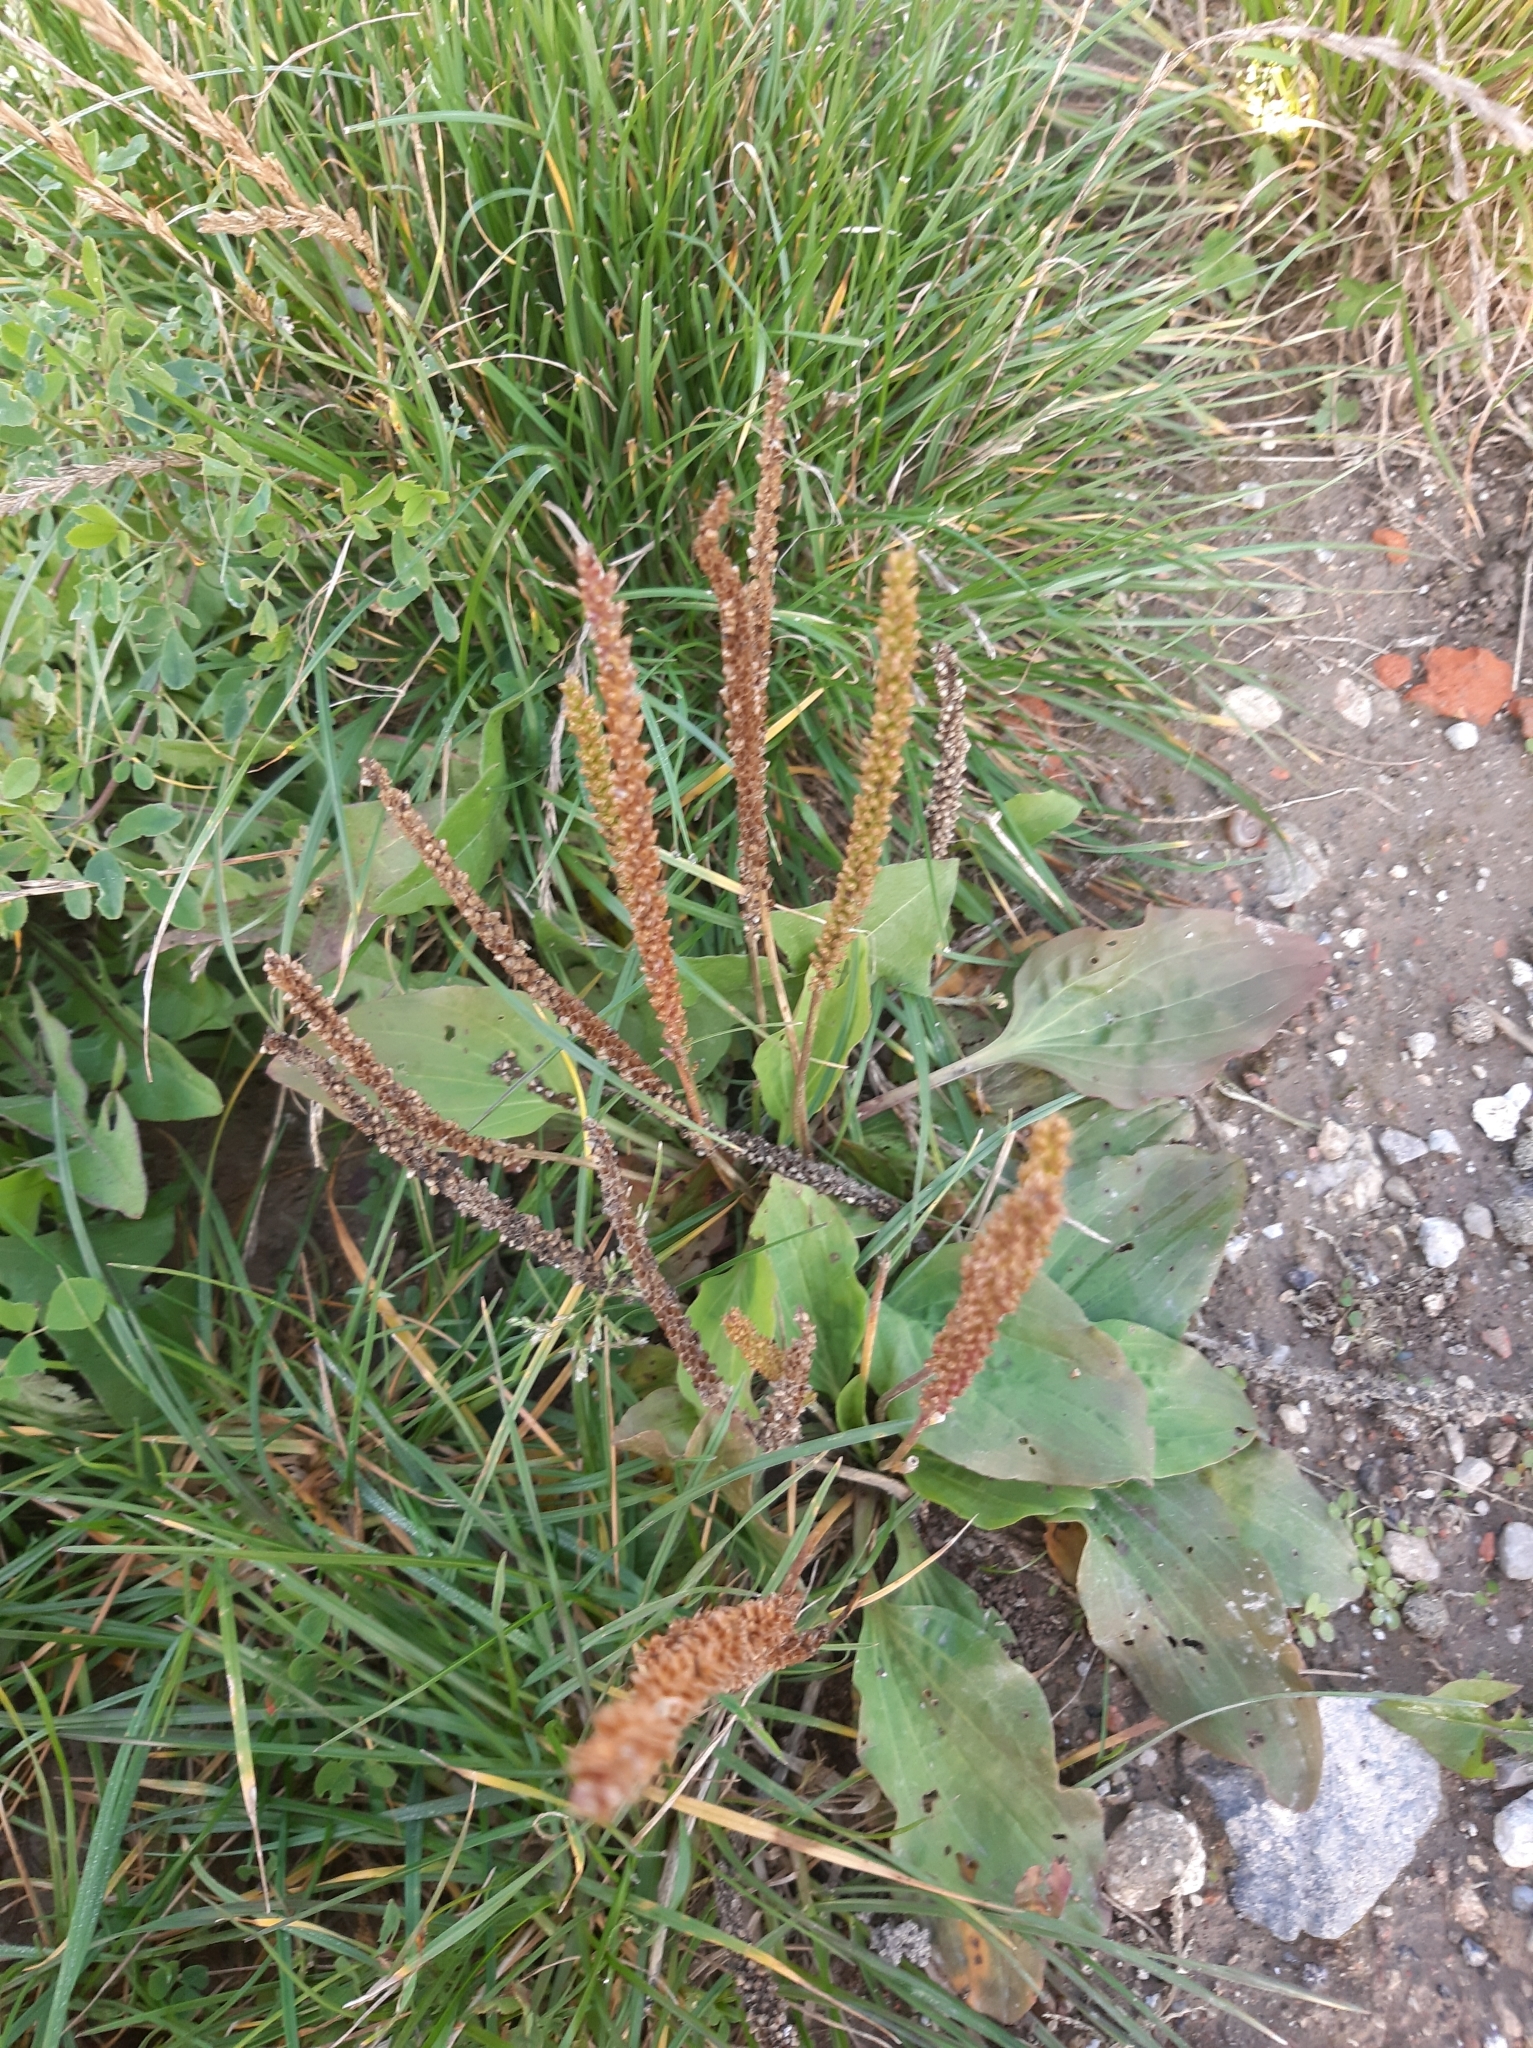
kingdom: Plantae
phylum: Tracheophyta
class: Magnoliopsida
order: Lamiales
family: Plantaginaceae
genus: Plantago
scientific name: Plantago major
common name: Common plantain
